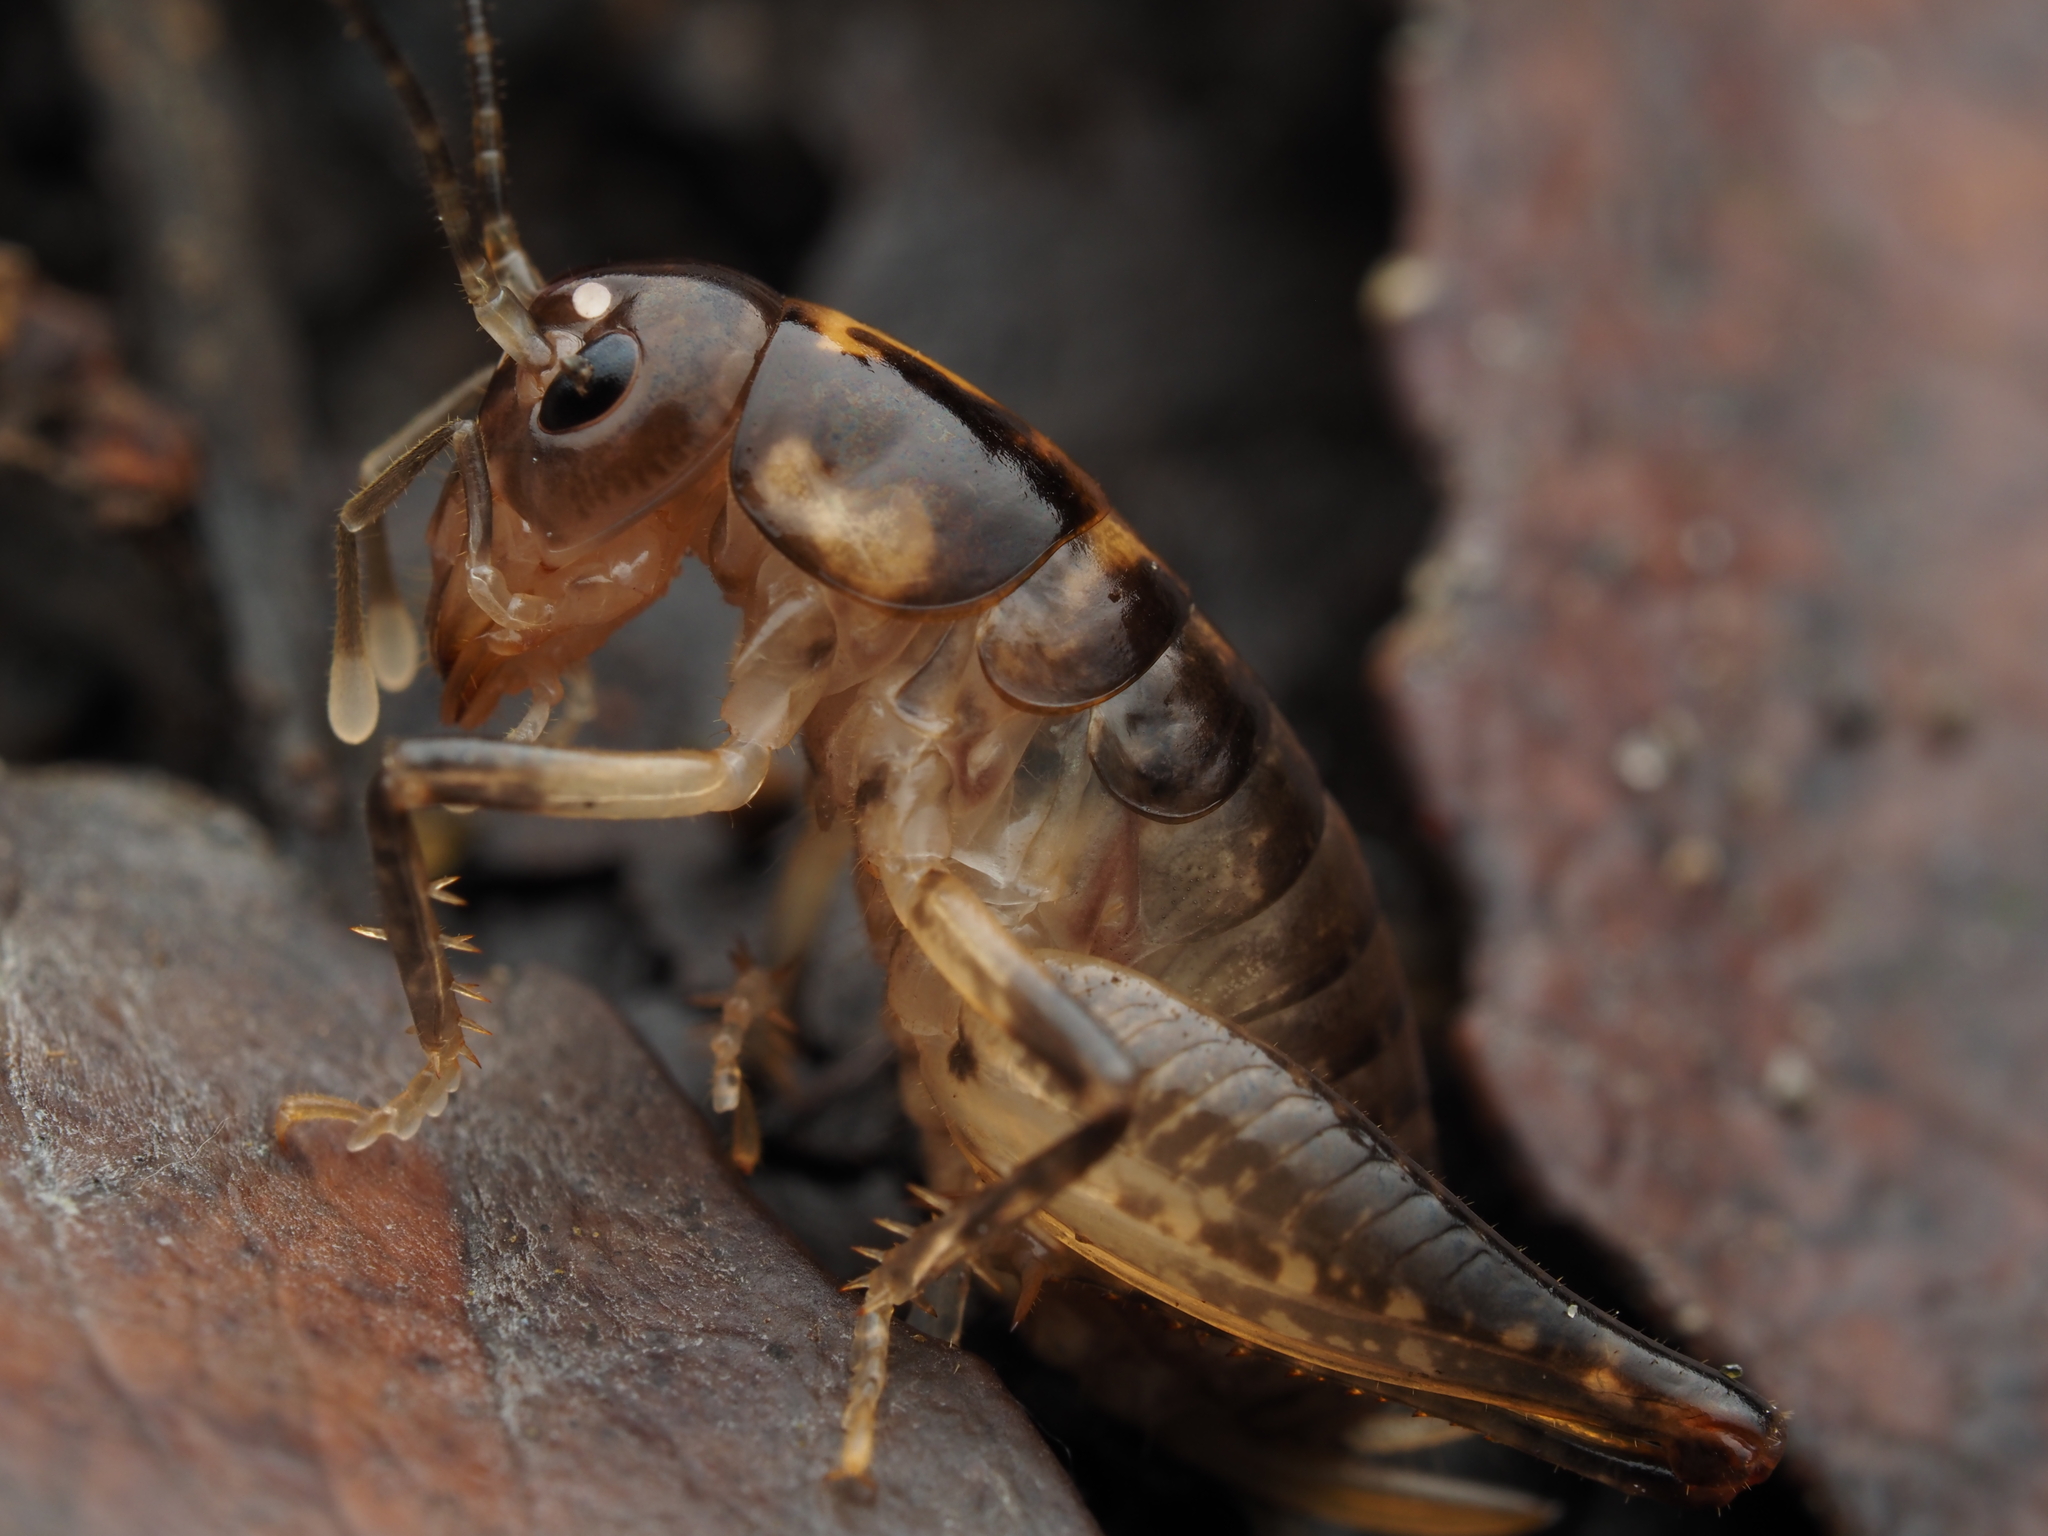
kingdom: Animalia
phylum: Arthropoda
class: Insecta
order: Orthoptera
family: Anostostomatidae
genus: Hemiandrus
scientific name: Hemiandrus brucei
